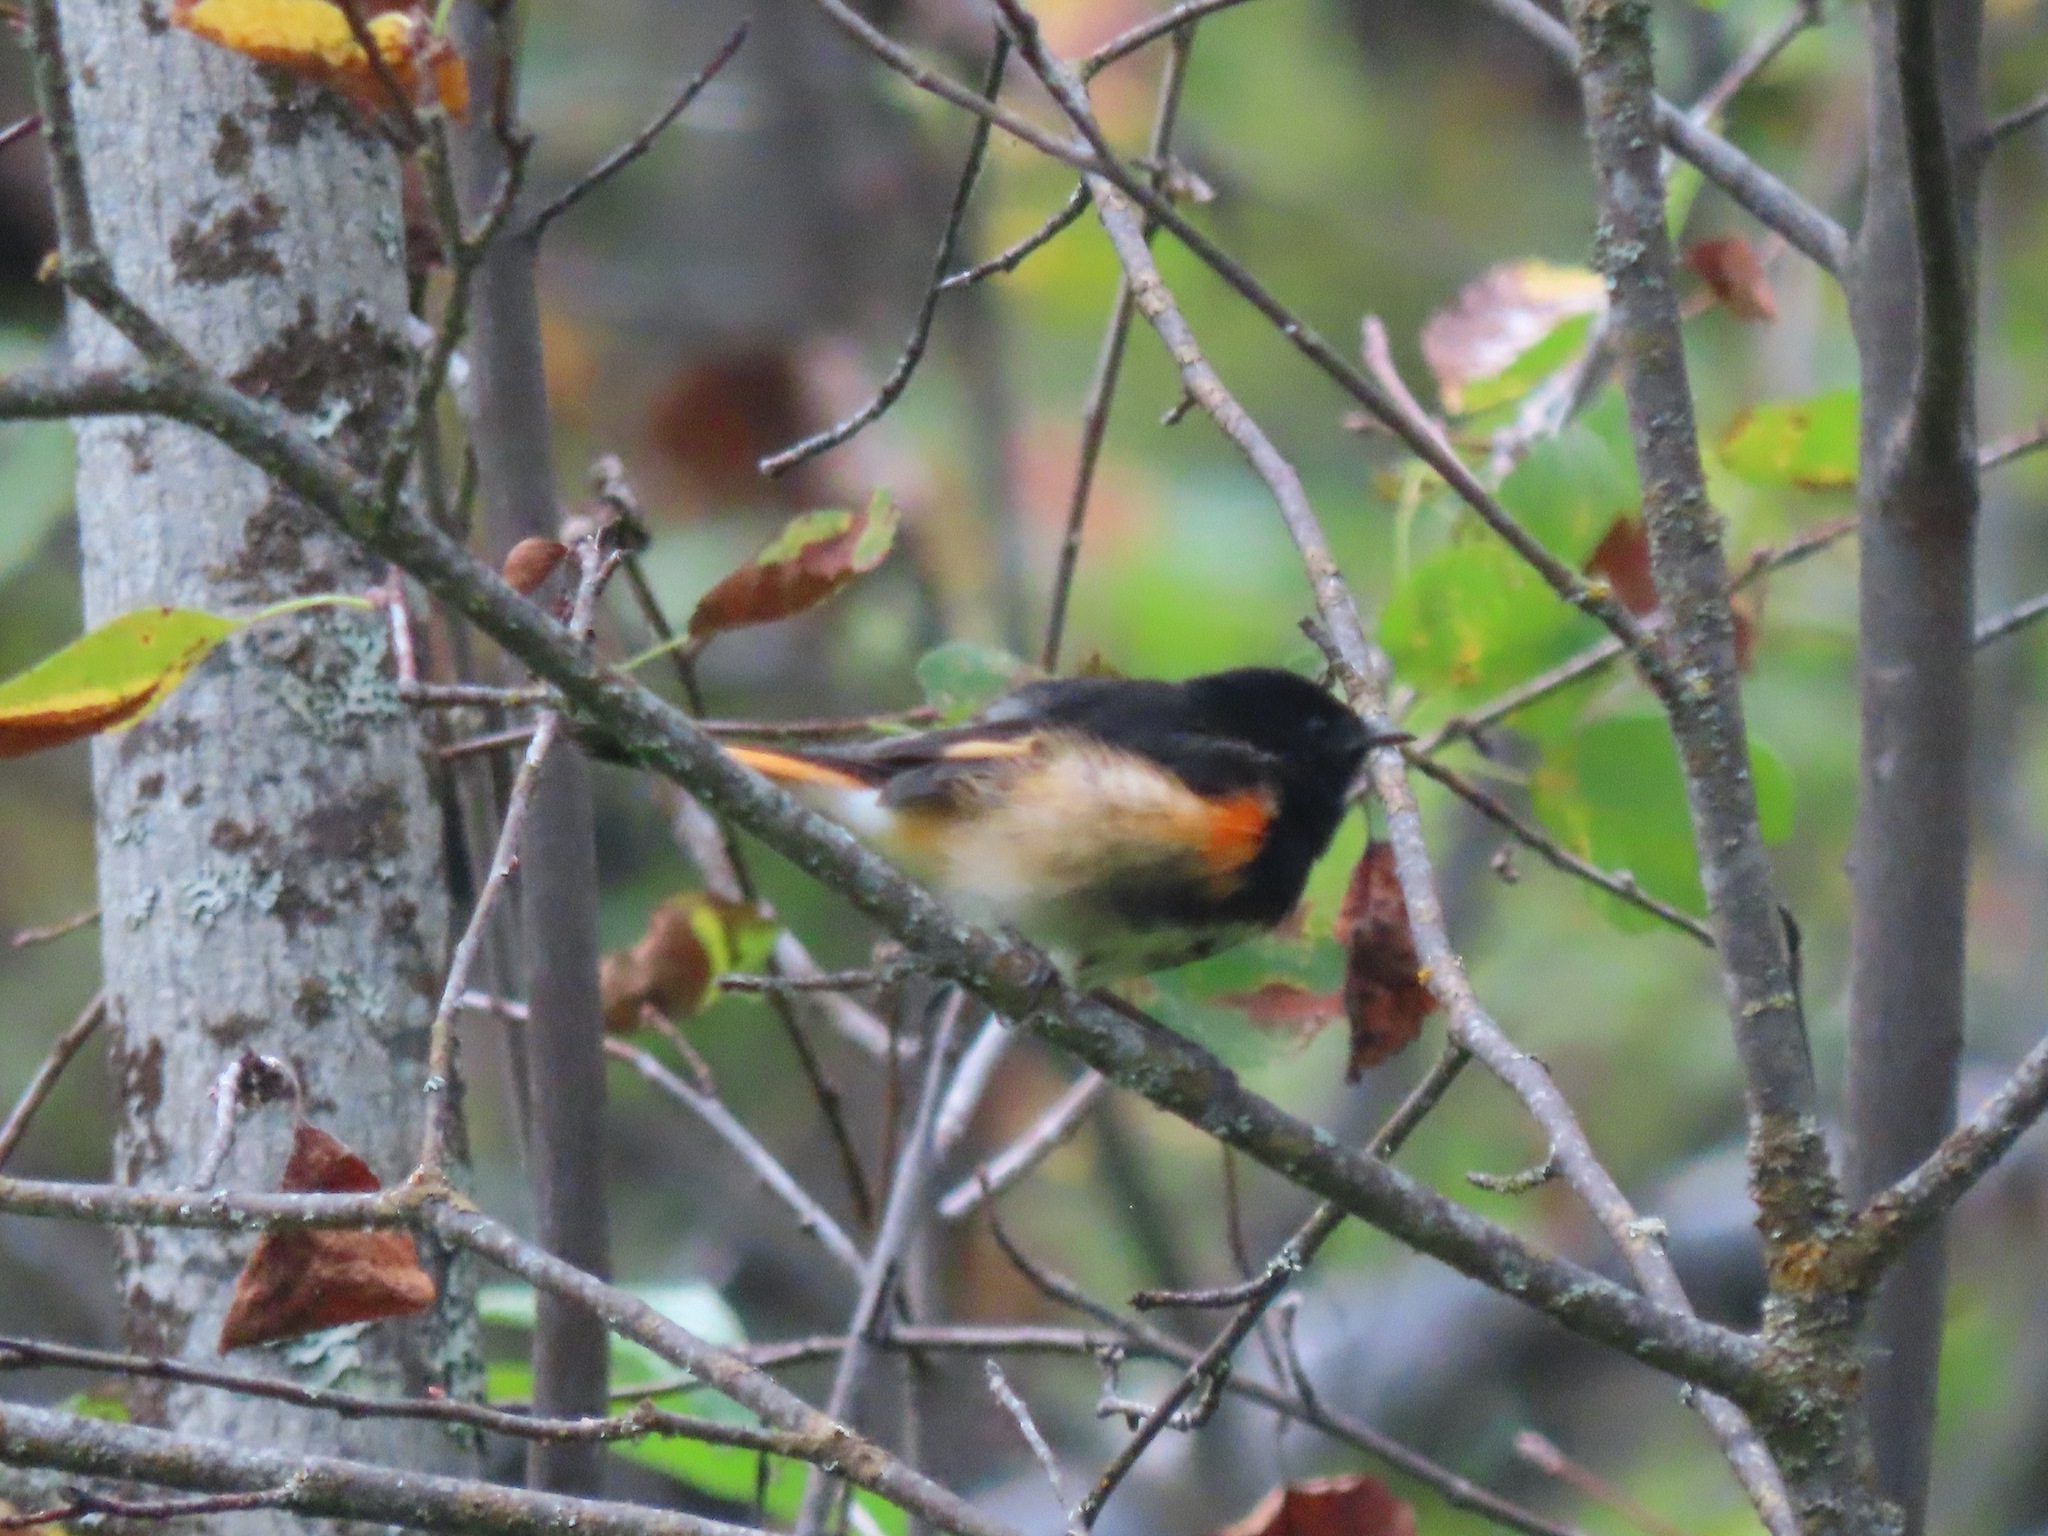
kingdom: Animalia
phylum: Chordata
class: Aves
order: Passeriformes
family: Parulidae
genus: Setophaga
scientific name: Setophaga ruticilla
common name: American redstart
